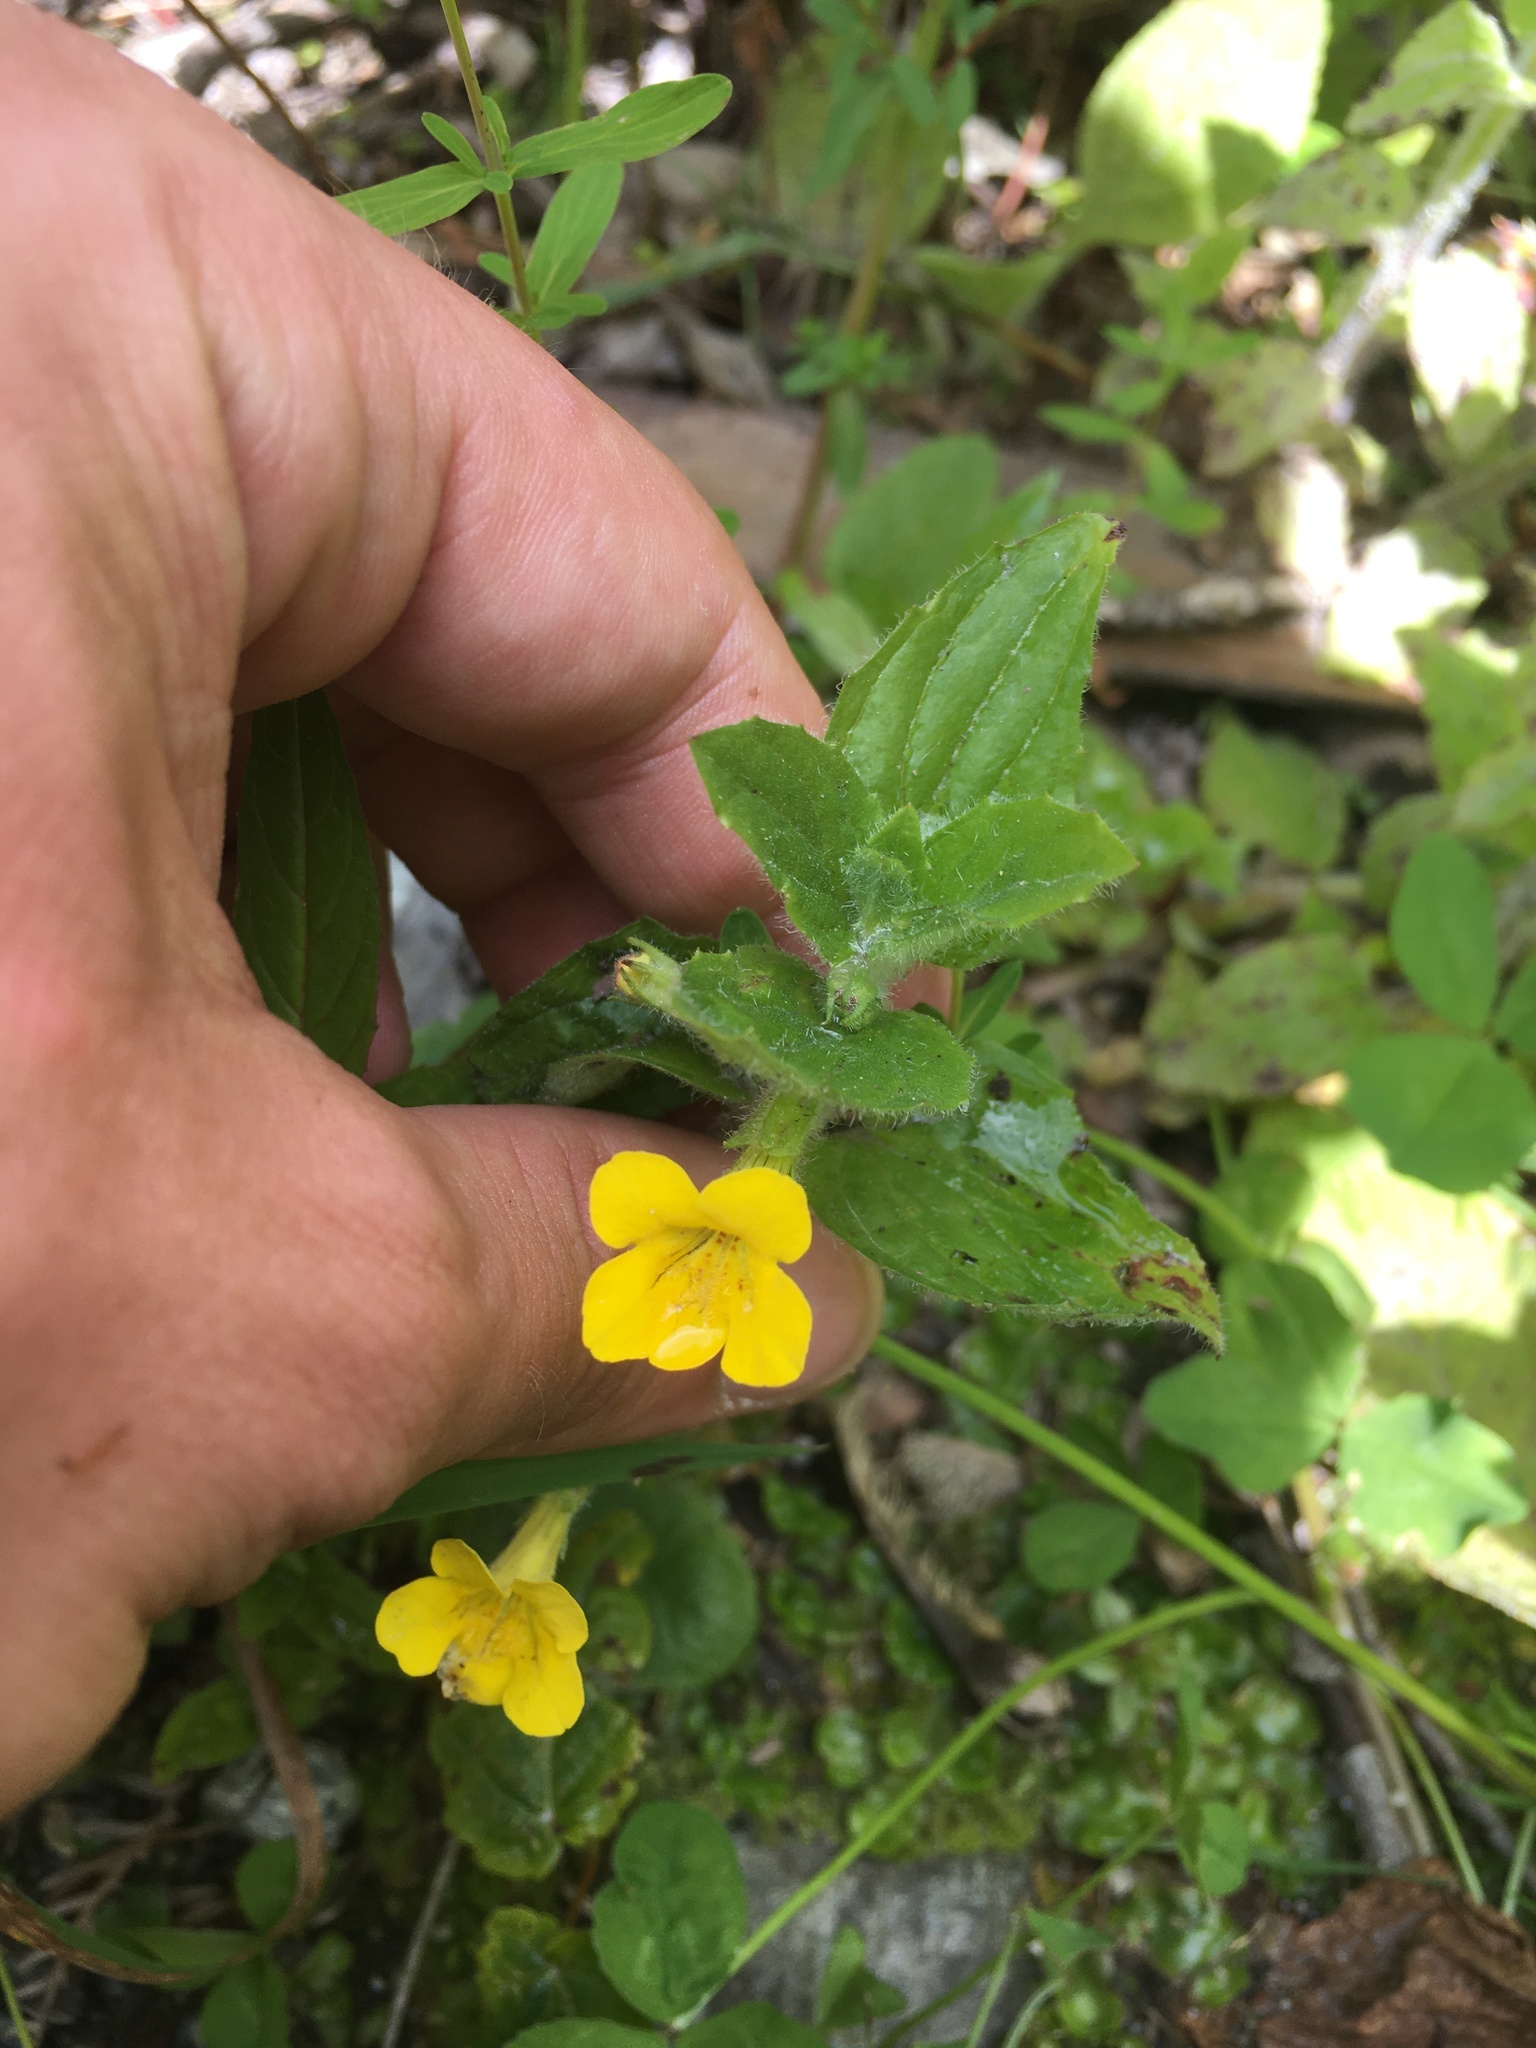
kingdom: Plantae
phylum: Tracheophyta
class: Magnoliopsida
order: Lamiales
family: Phrymaceae
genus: Erythranthe
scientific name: Erythranthe moschata
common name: Muskflower
